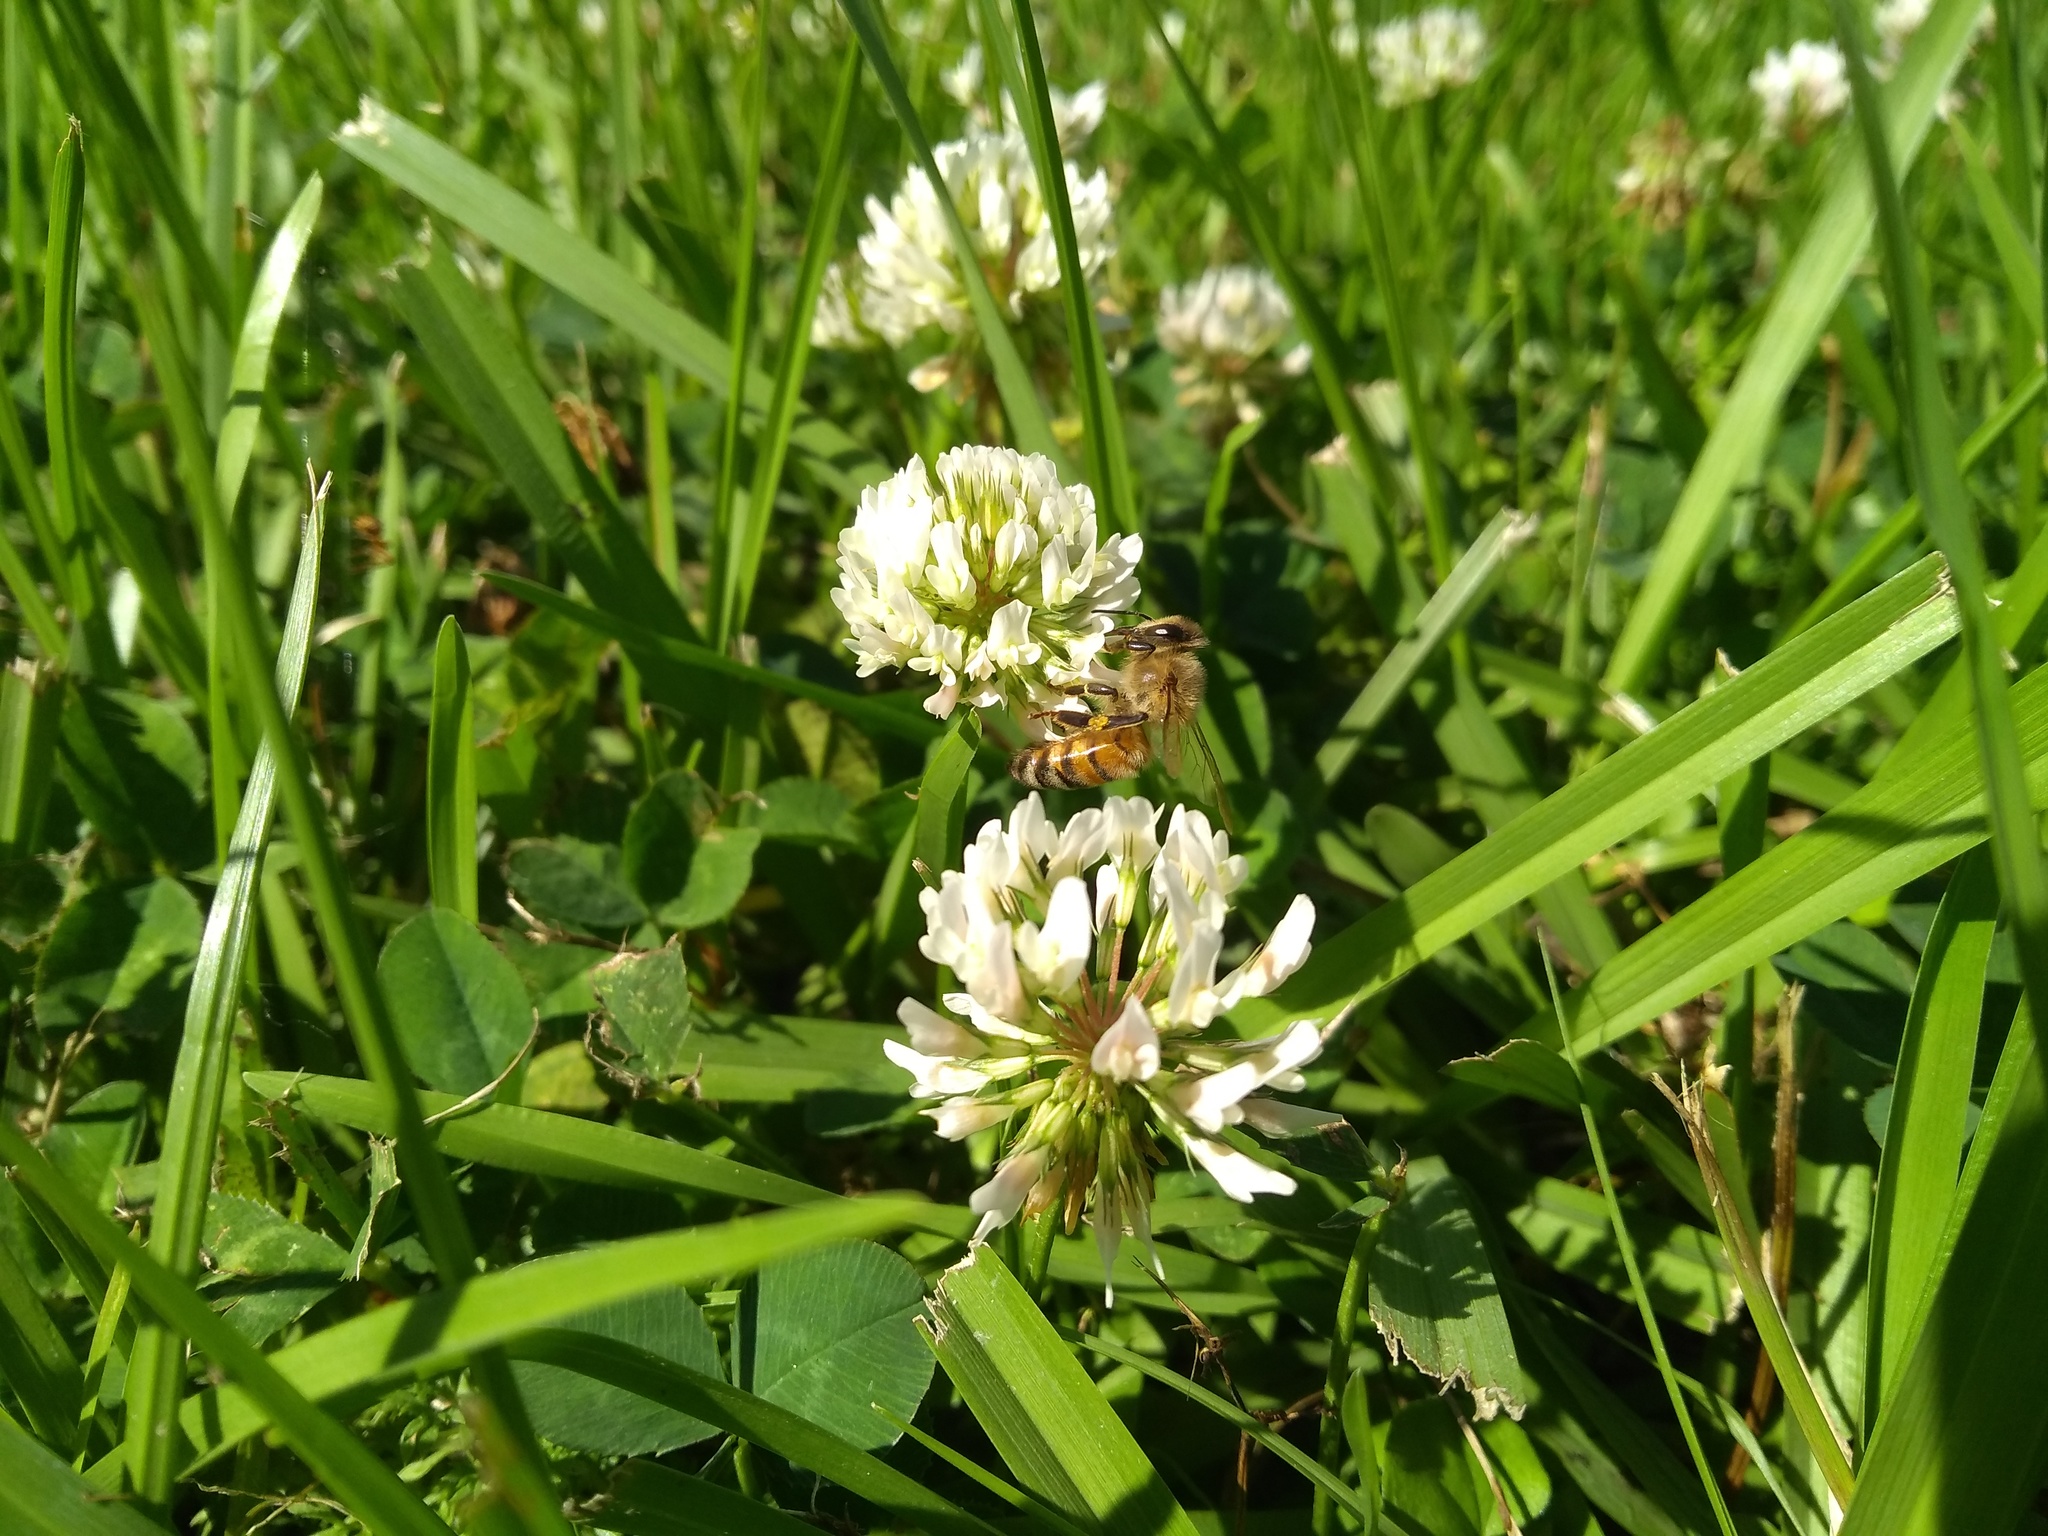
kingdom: Animalia
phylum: Arthropoda
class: Insecta
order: Hymenoptera
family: Apidae
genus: Apis
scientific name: Apis mellifera
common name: Honey bee
